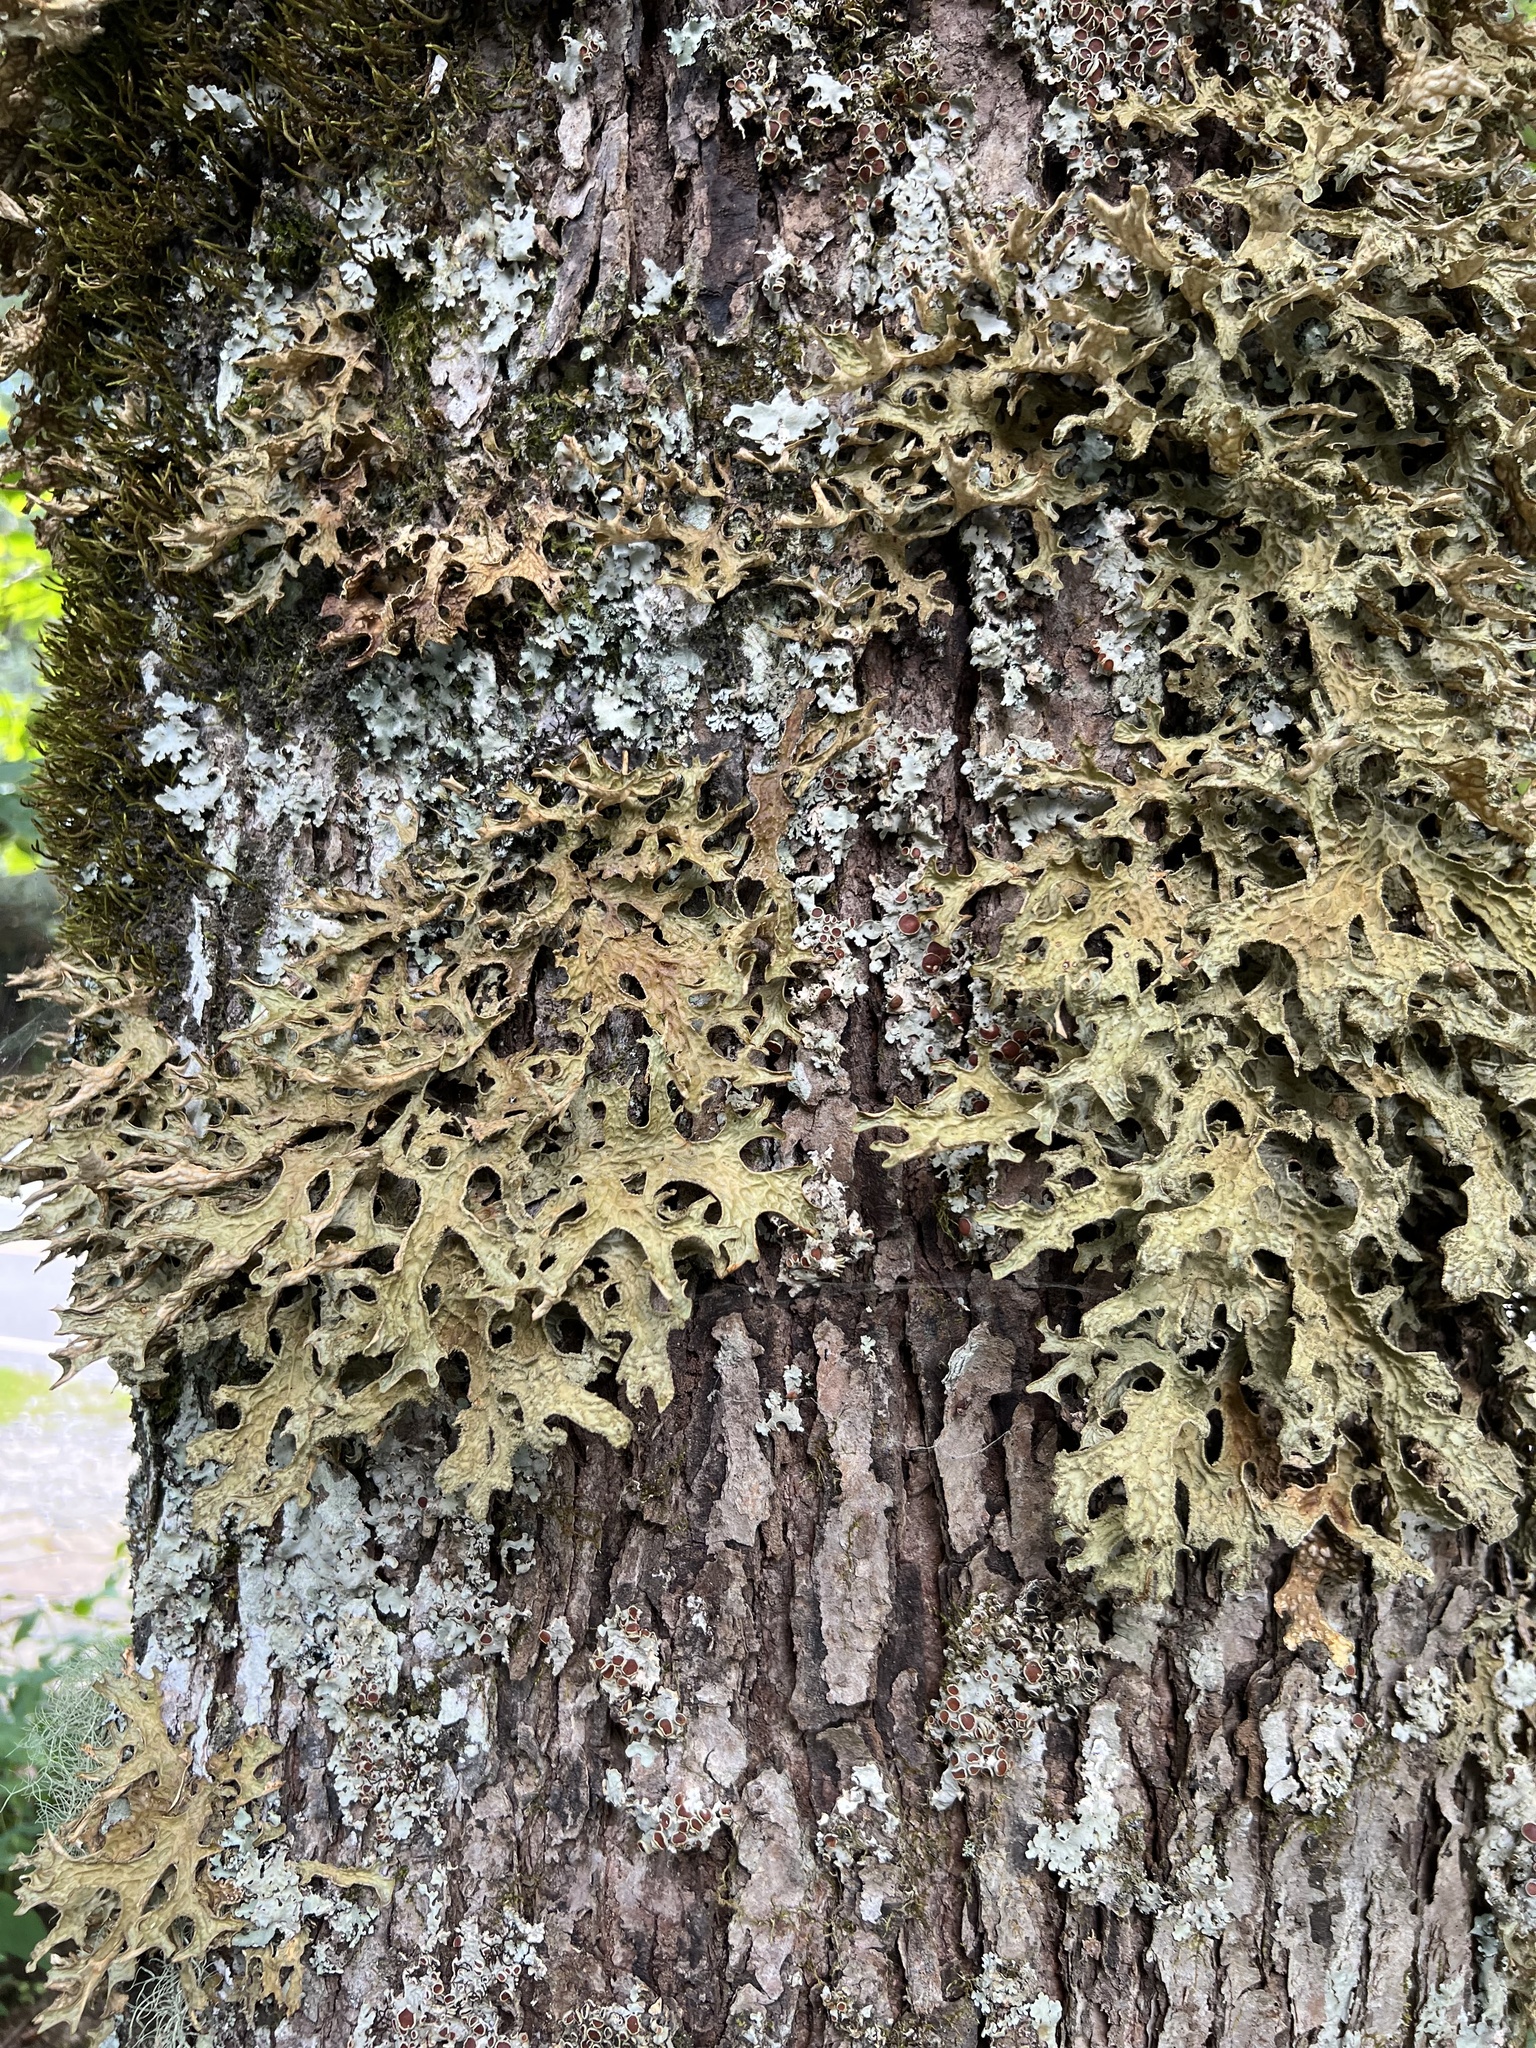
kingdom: Fungi
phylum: Ascomycota
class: Lecanoromycetes
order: Peltigerales
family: Lobariaceae
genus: Lobaria
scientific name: Lobaria pulmonaria
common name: Lungwort
